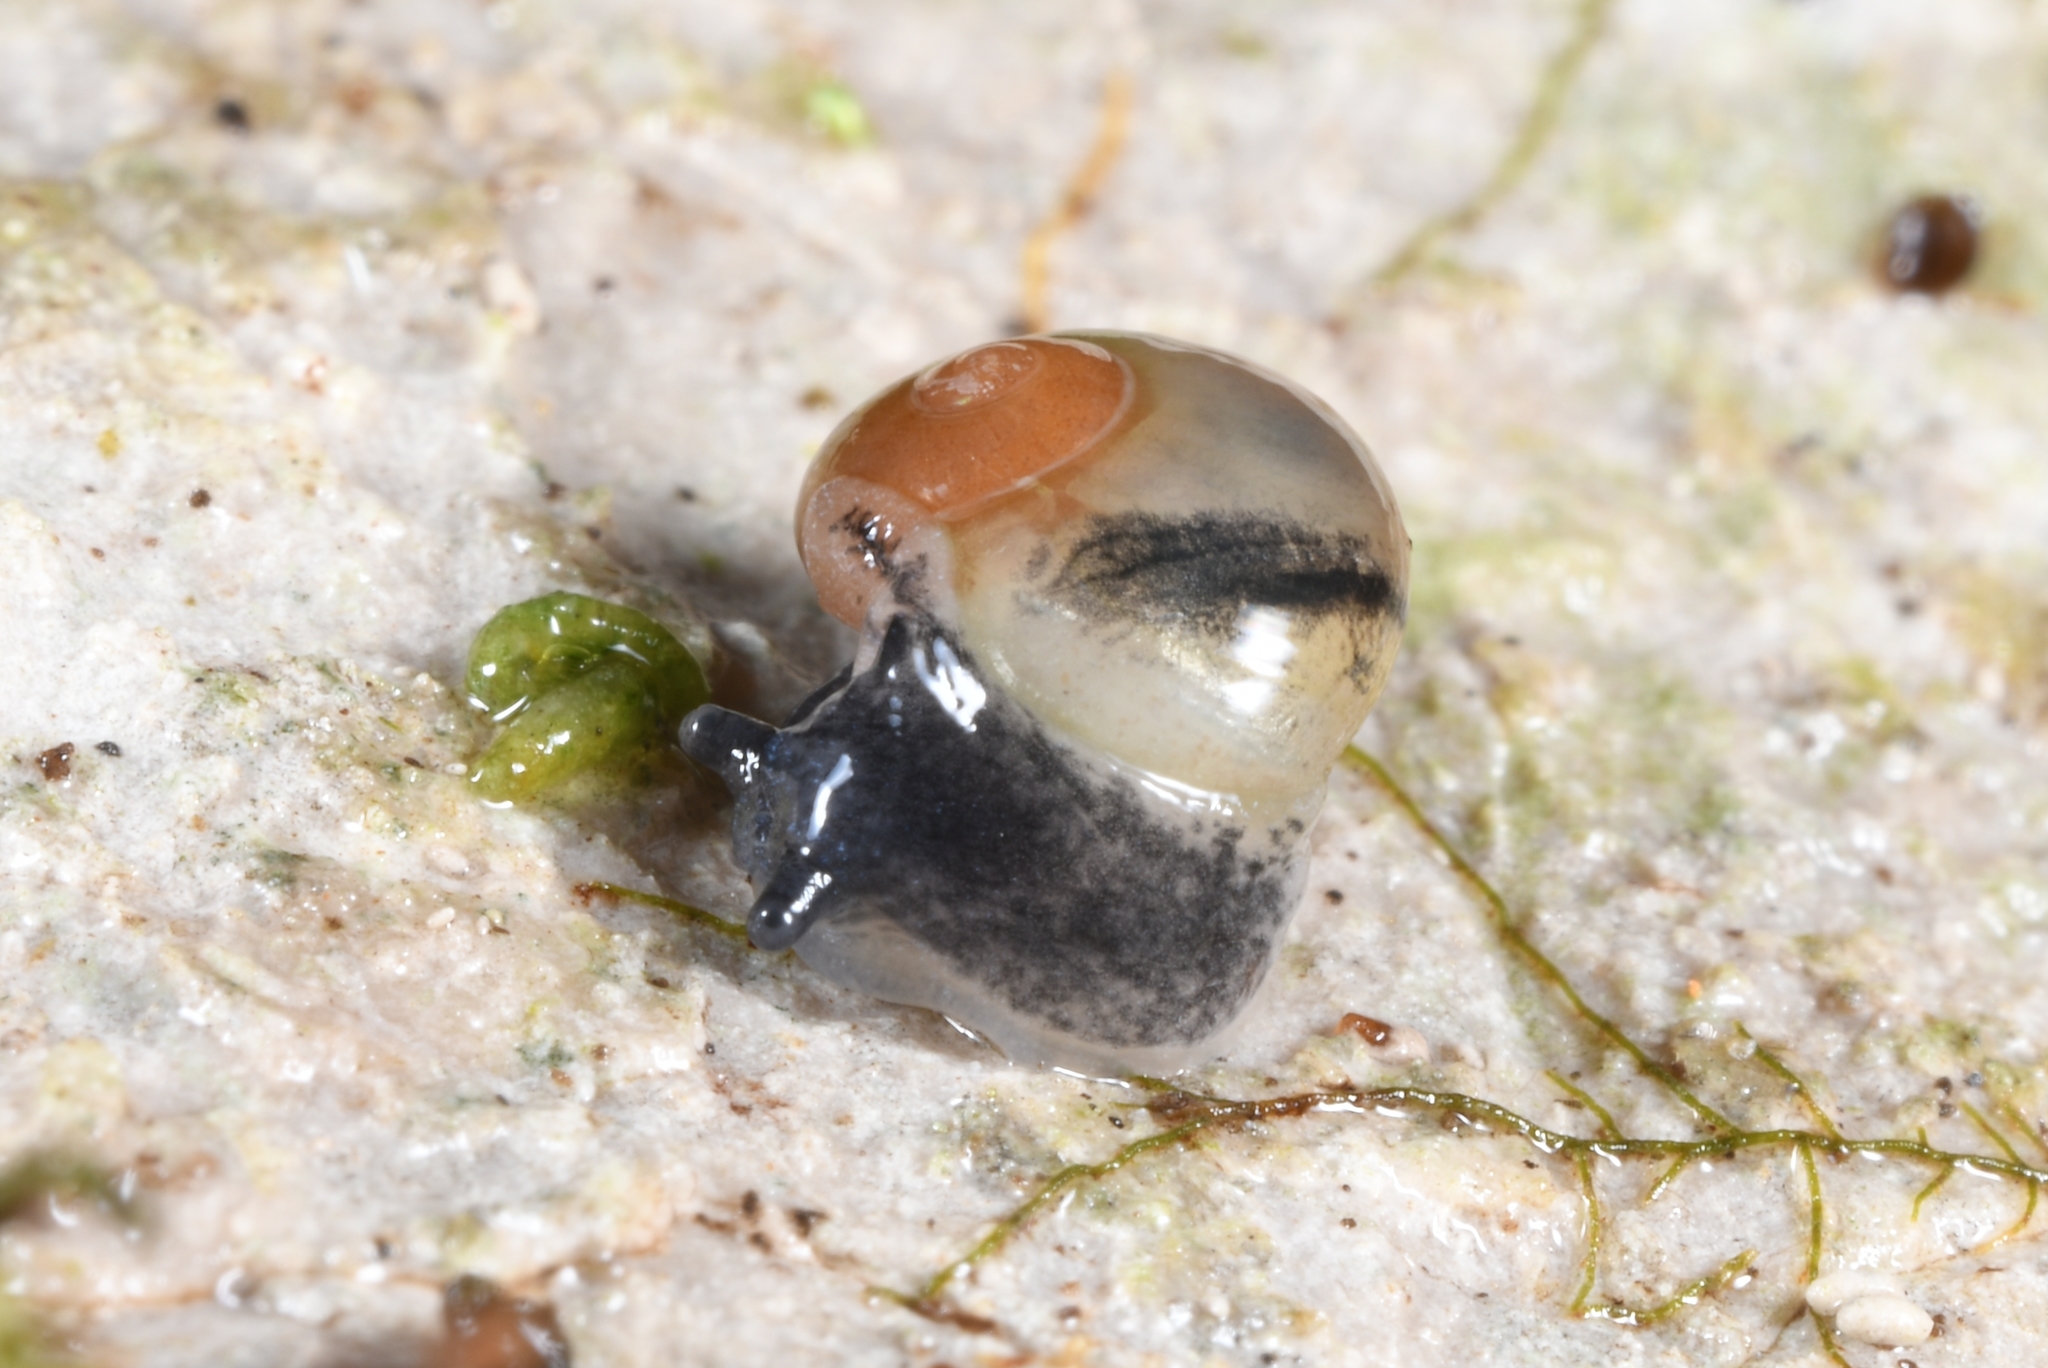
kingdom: Animalia
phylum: Mollusca
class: Gastropoda
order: Stylommatophora
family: Vitrinidae
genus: Vitrina
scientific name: Vitrina pellucida
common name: Pellucid glass snail
